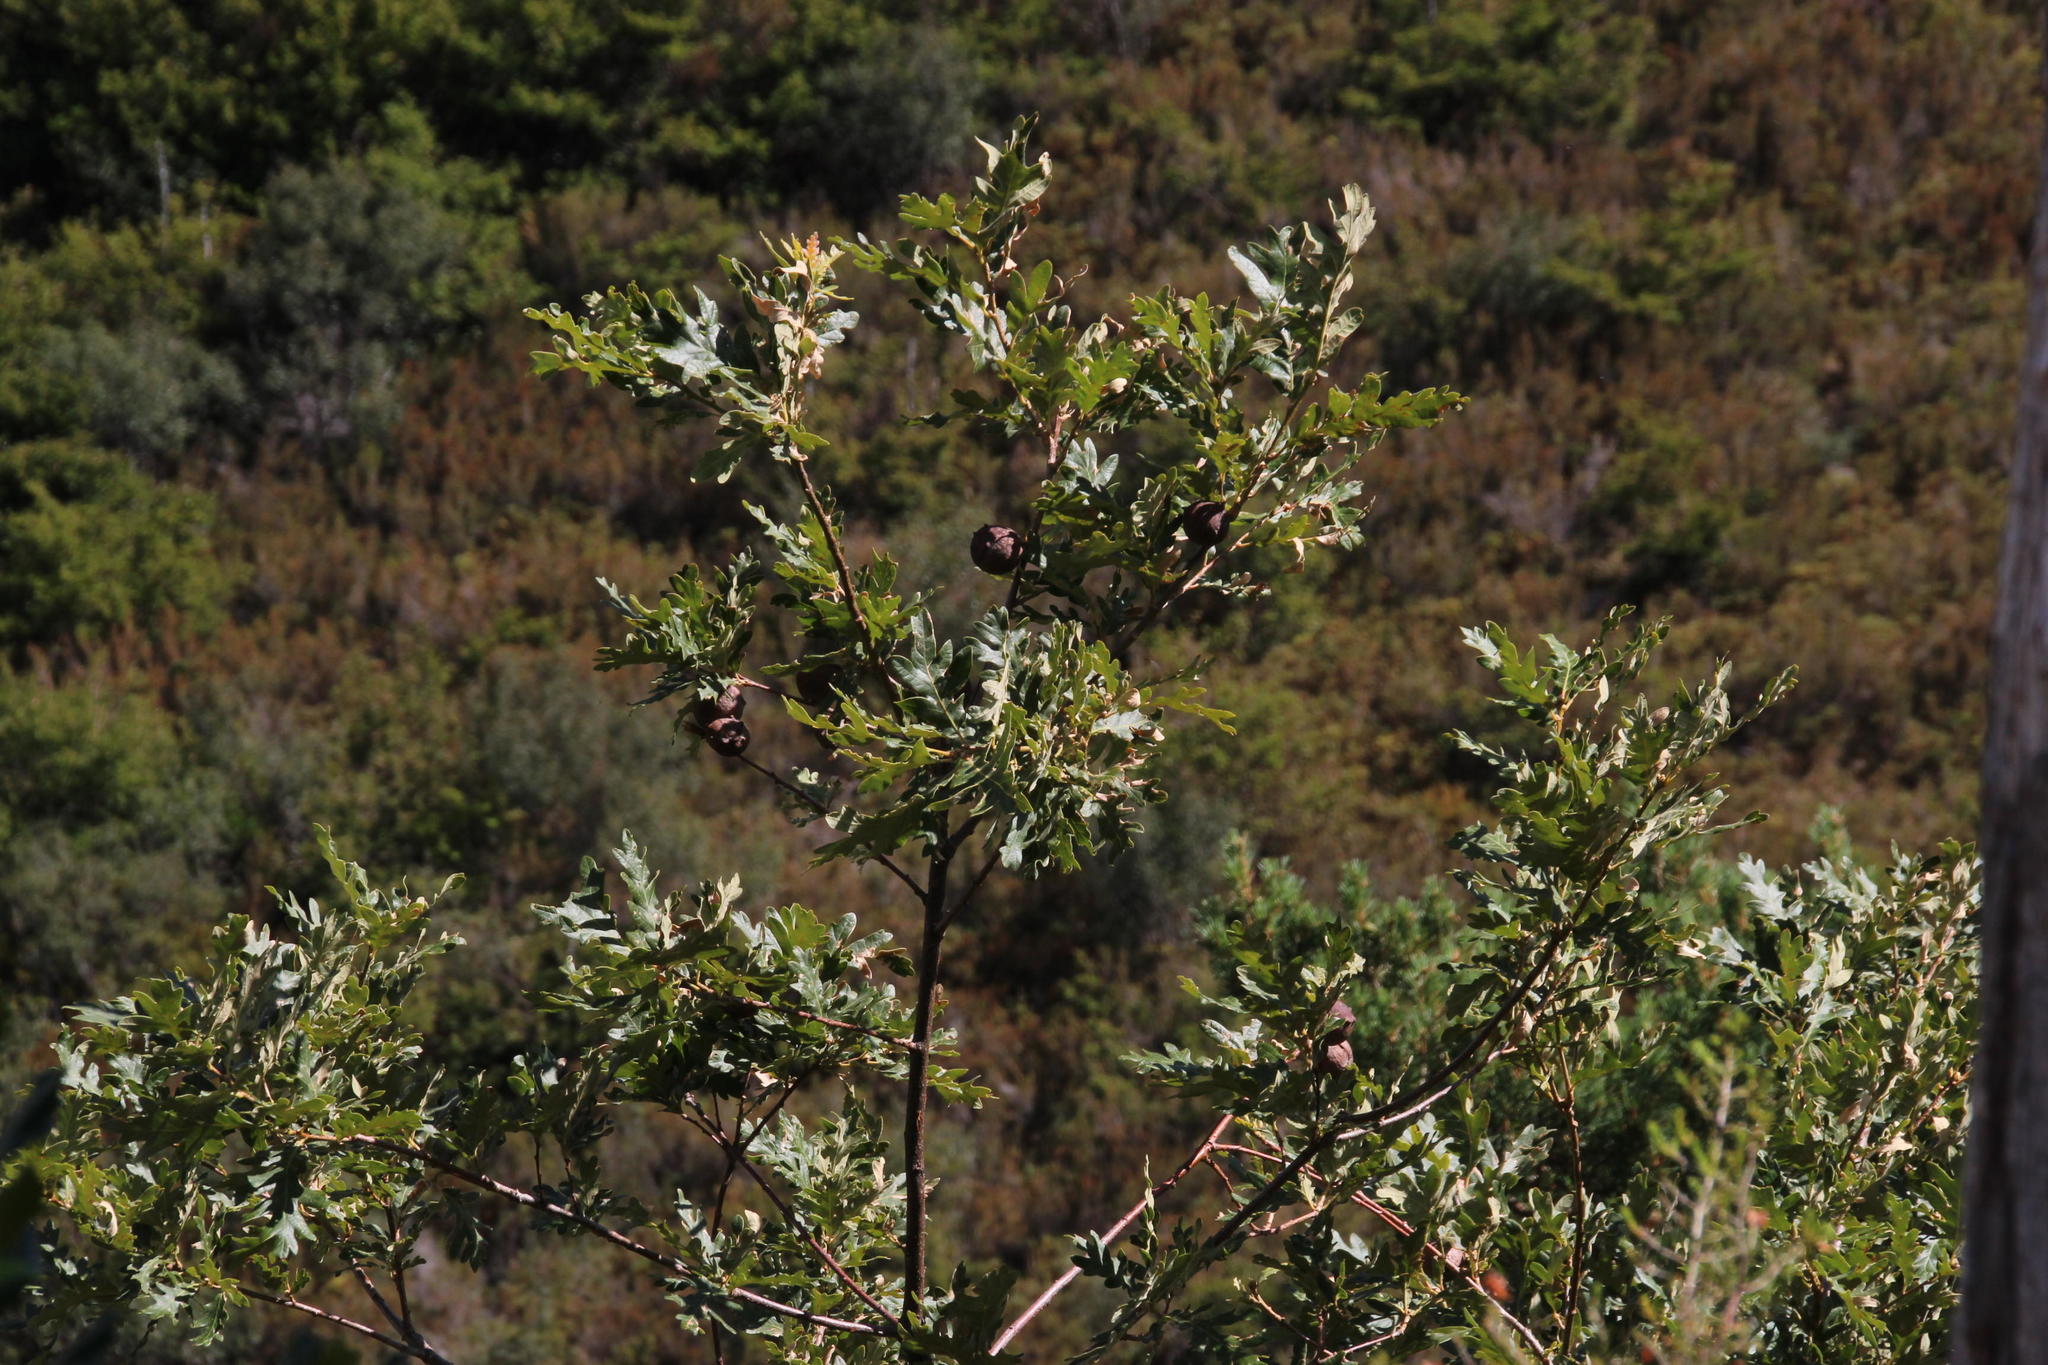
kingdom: Plantae
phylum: Tracheophyta
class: Magnoliopsida
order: Fagales
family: Fagaceae
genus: Quercus
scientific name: Quercus pyrenaica
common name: Pyrenean oak
